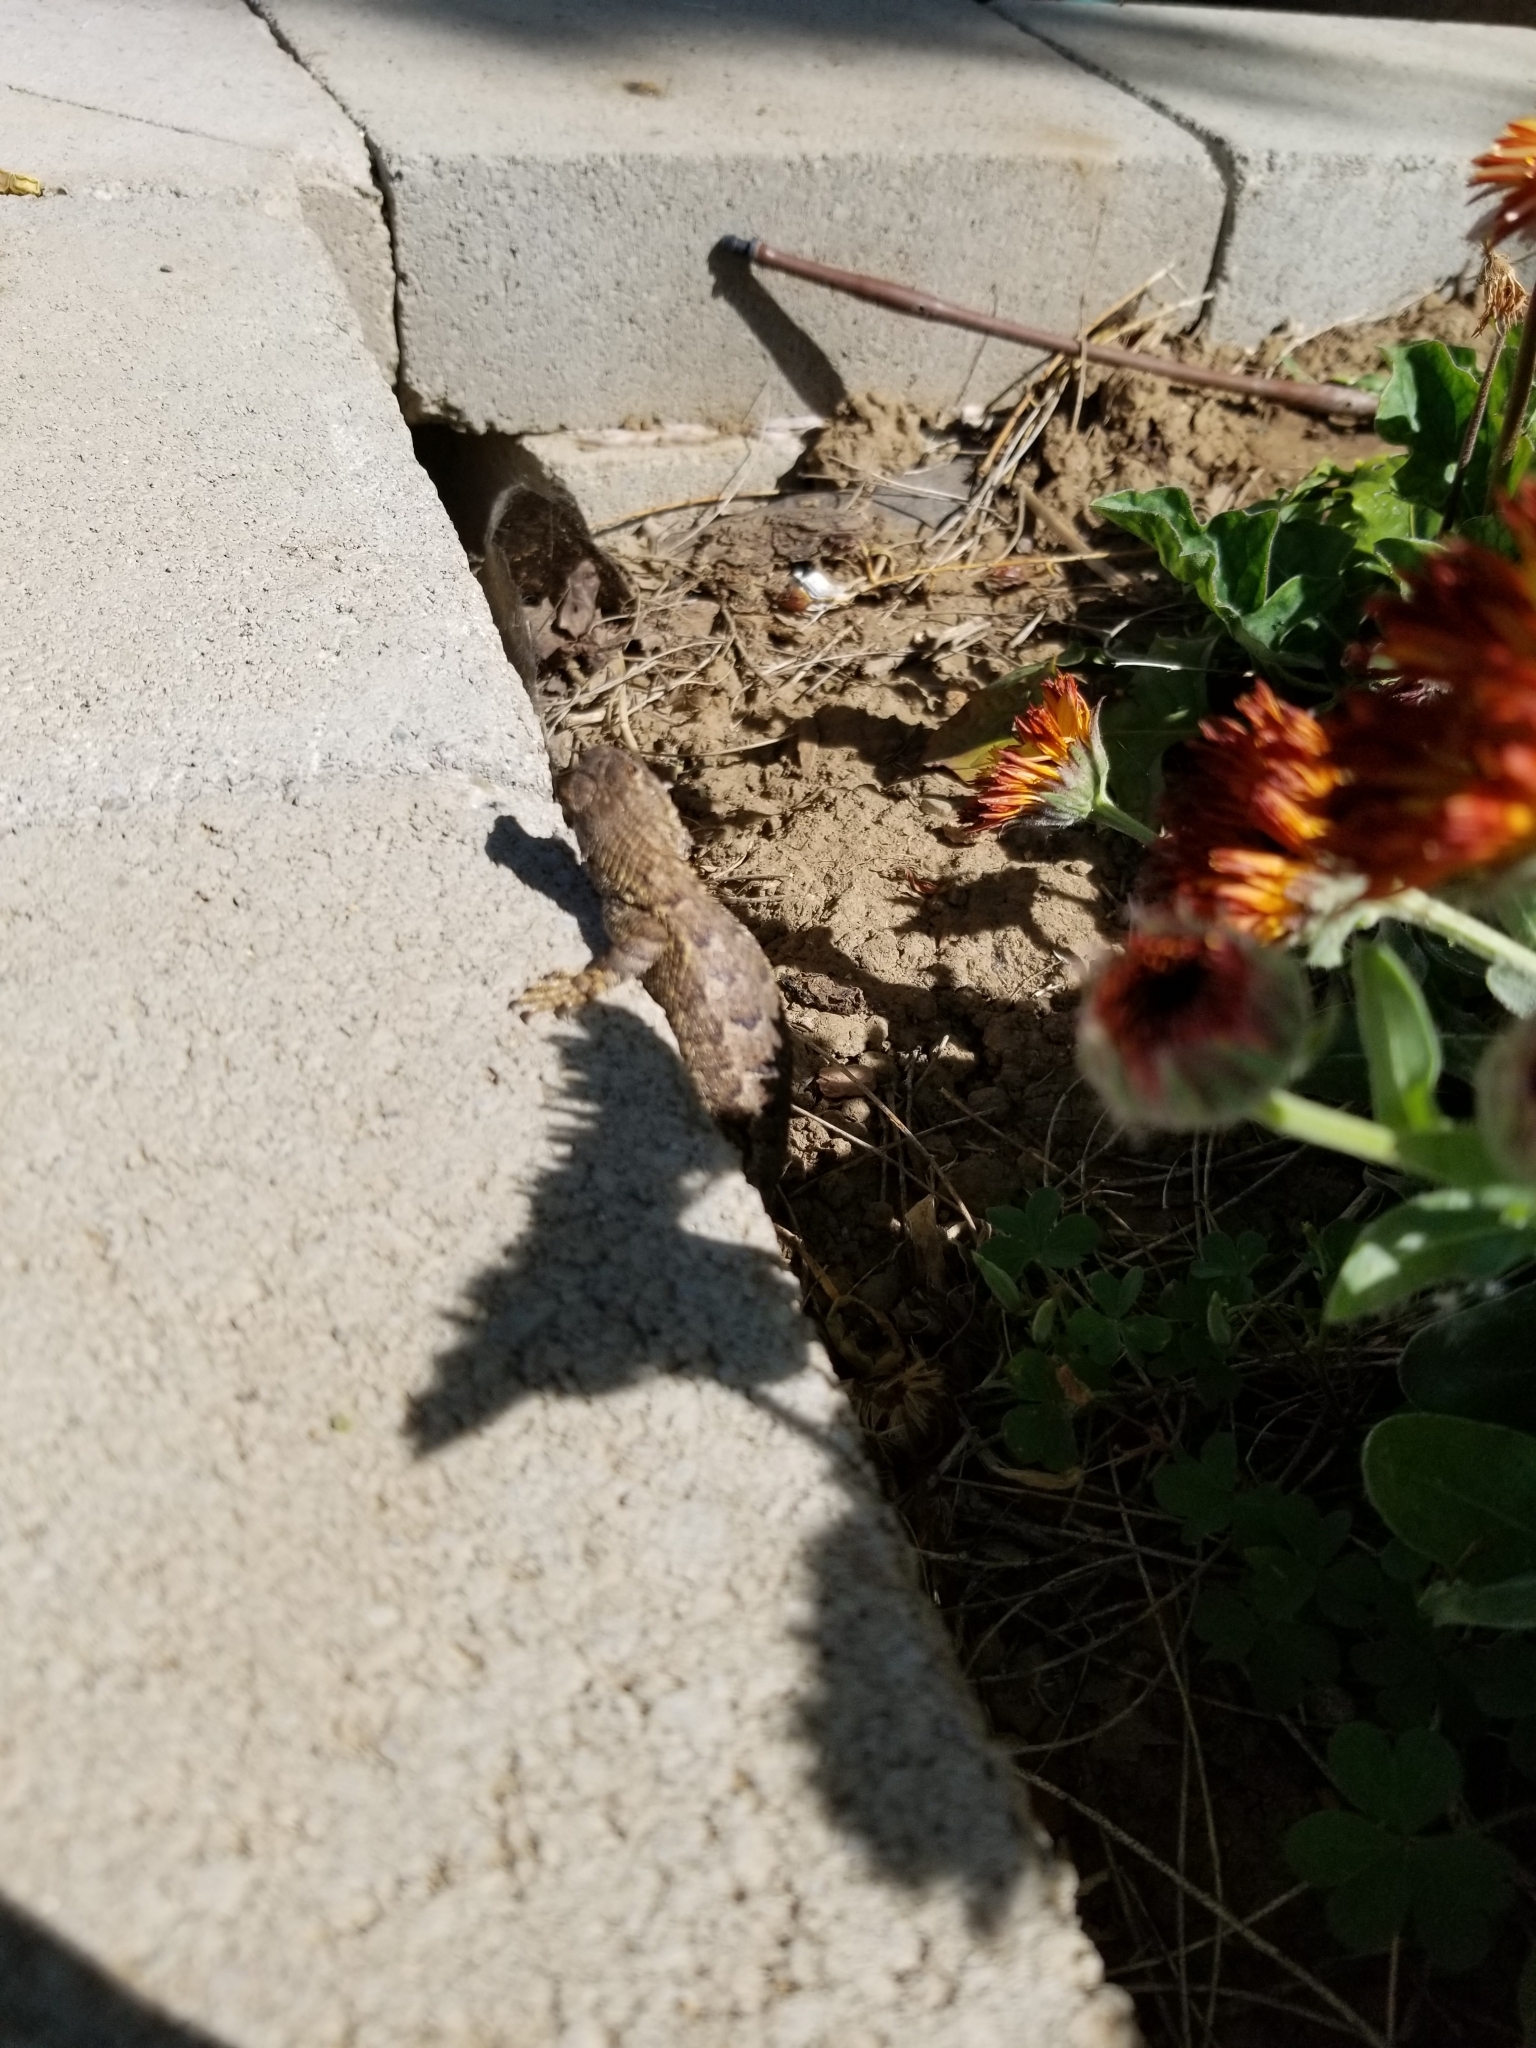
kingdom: Animalia
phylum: Chordata
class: Squamata
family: Phrynosomatidae
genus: Sceloporus
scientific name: Sceloporus occidentalis
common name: Western fence lizard
